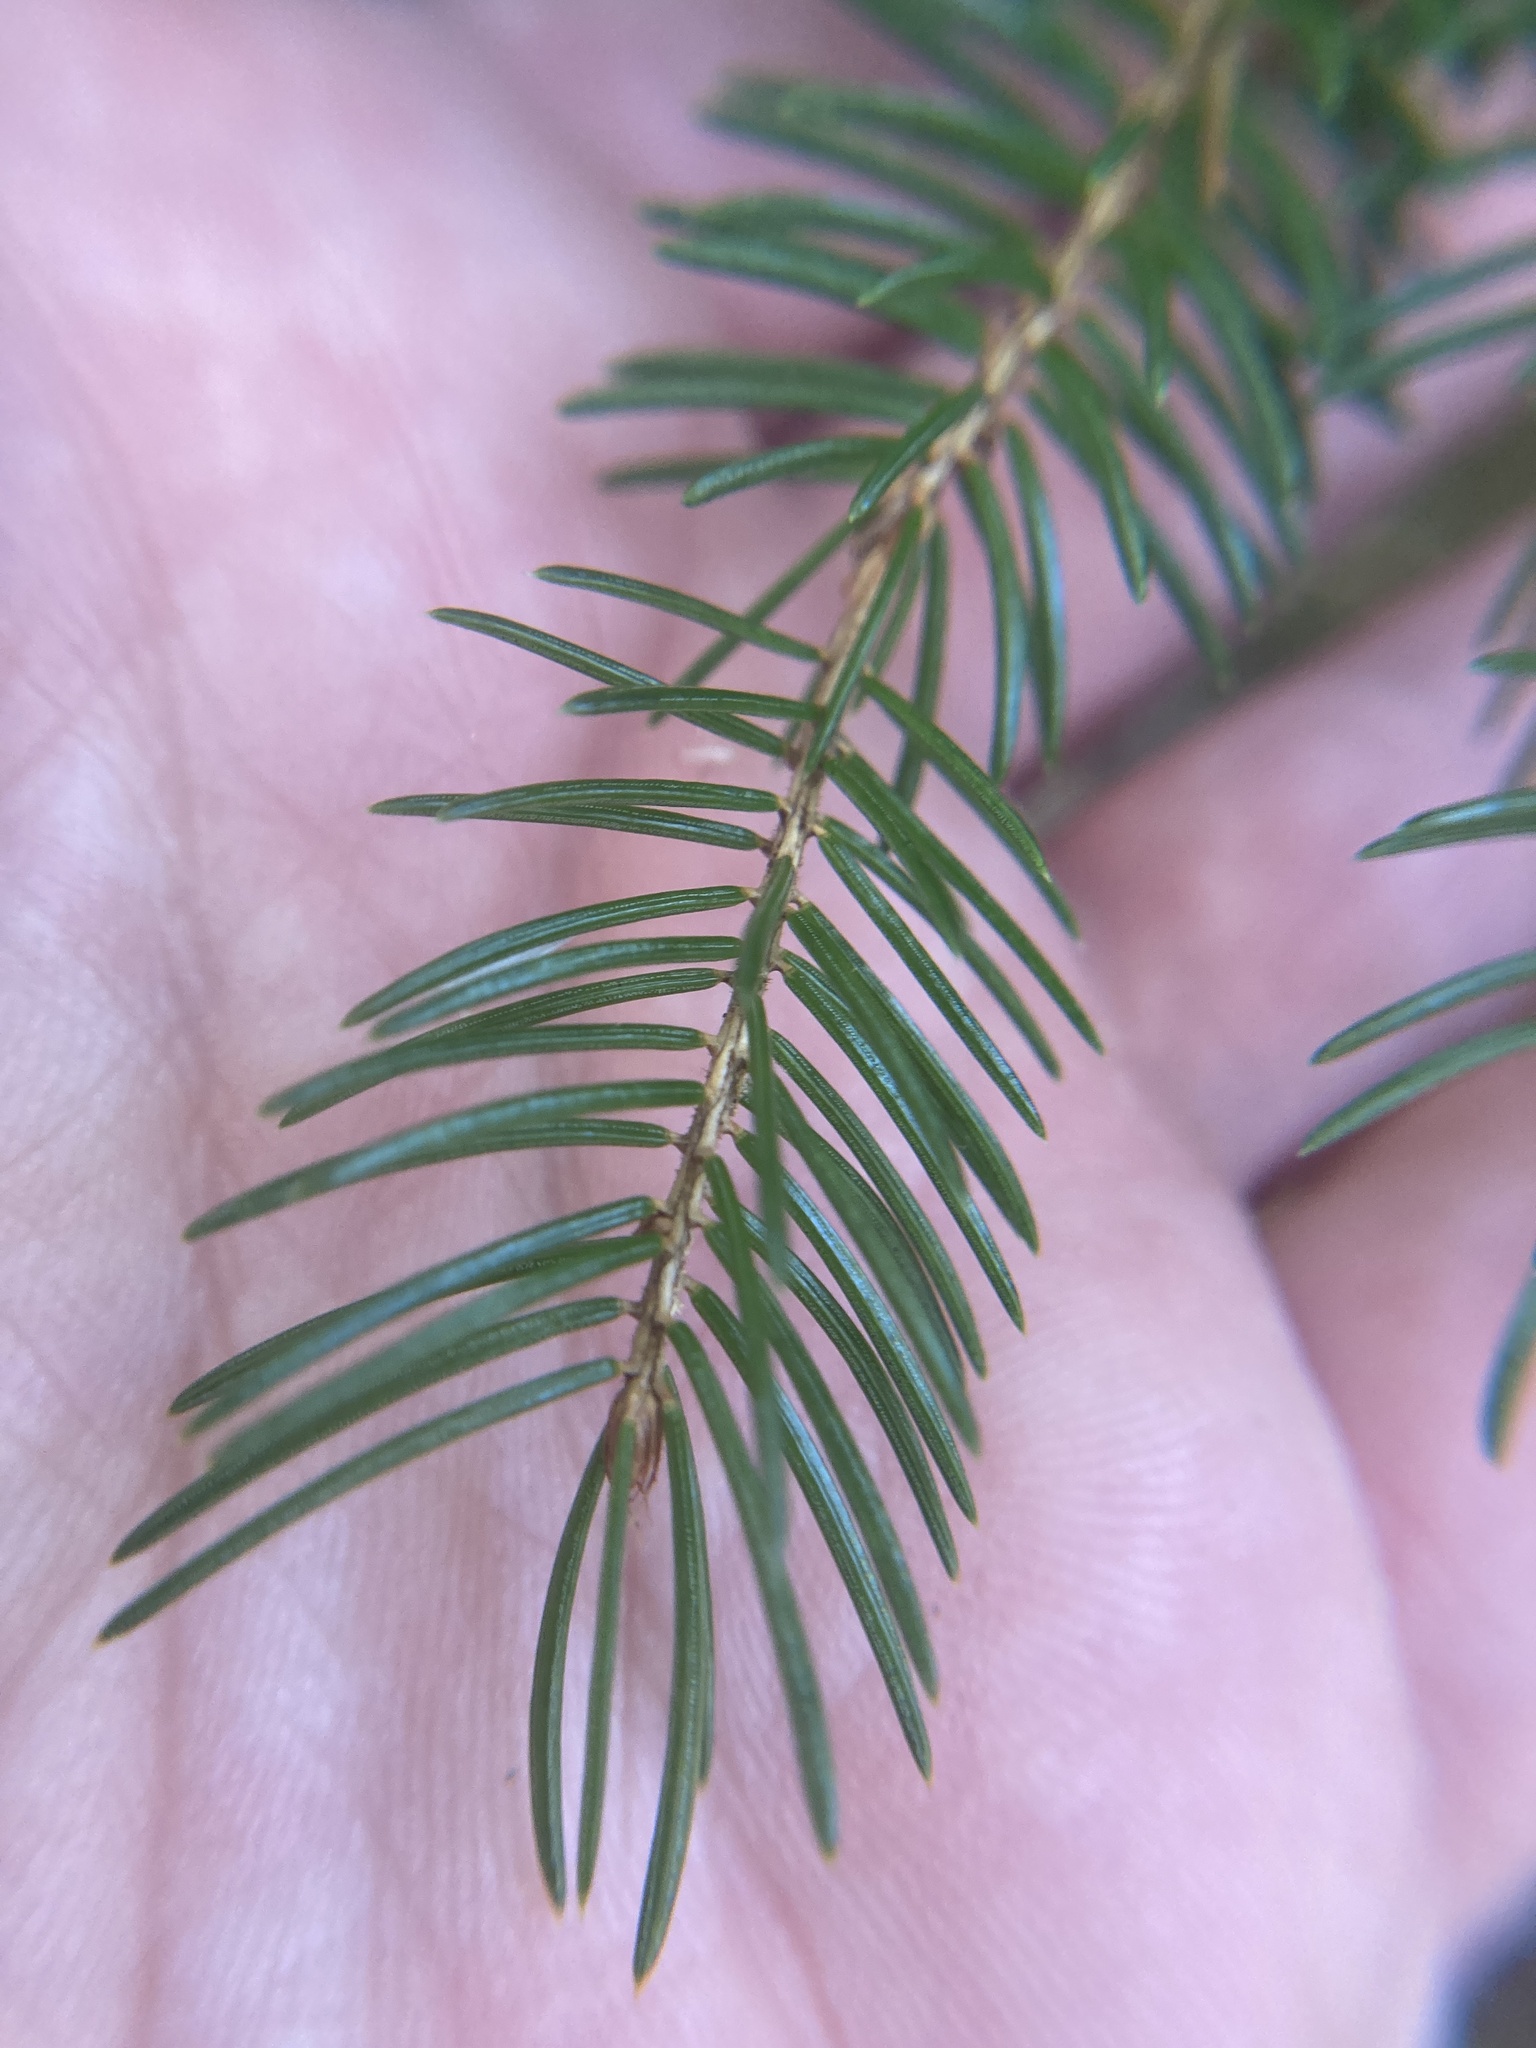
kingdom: Plantae
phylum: Tracheophyta
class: Pinopsida
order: Pinales
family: Pinaceae
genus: Picea
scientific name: Picea rubens
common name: Red spruce
